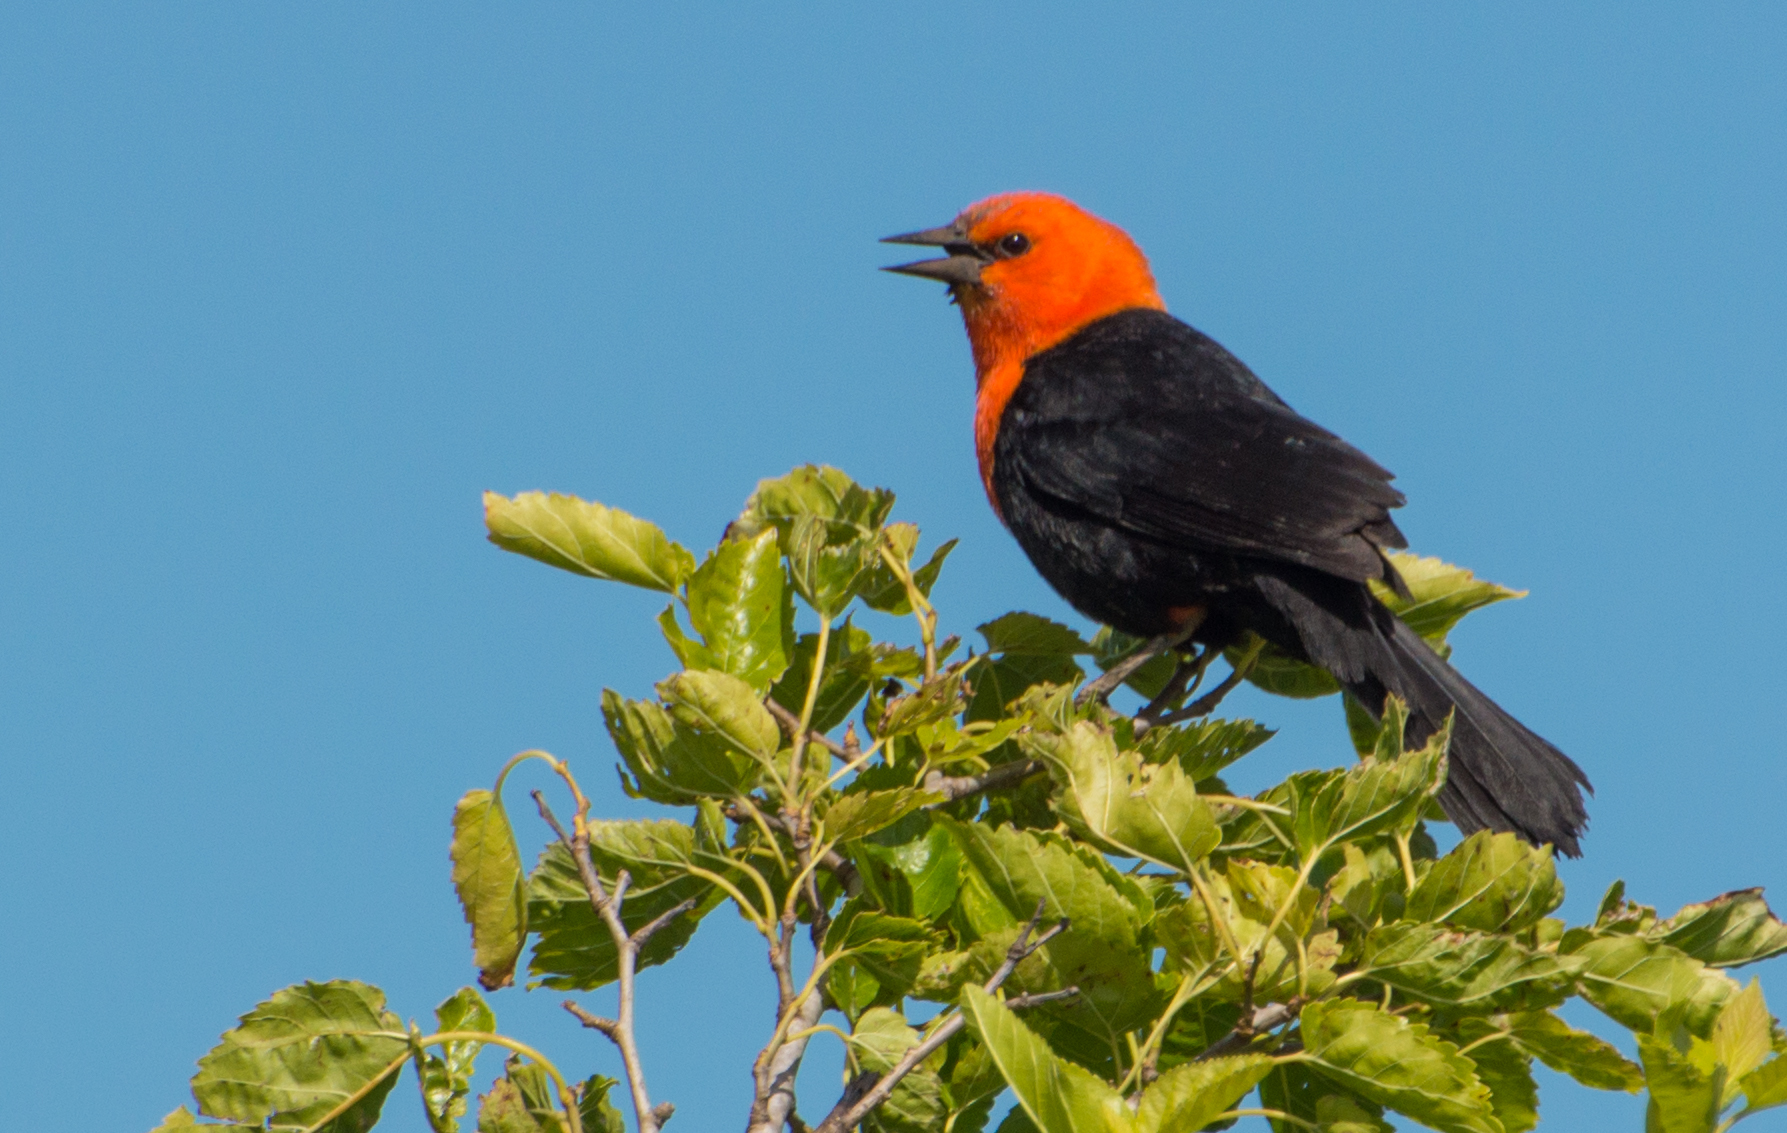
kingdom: Animalia
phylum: Chordata
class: Aves
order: Passeriformes
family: Icteridae
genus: Amblyramphus
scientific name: Amblyramphus holosericeus
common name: Scarlet-headed blackbird
